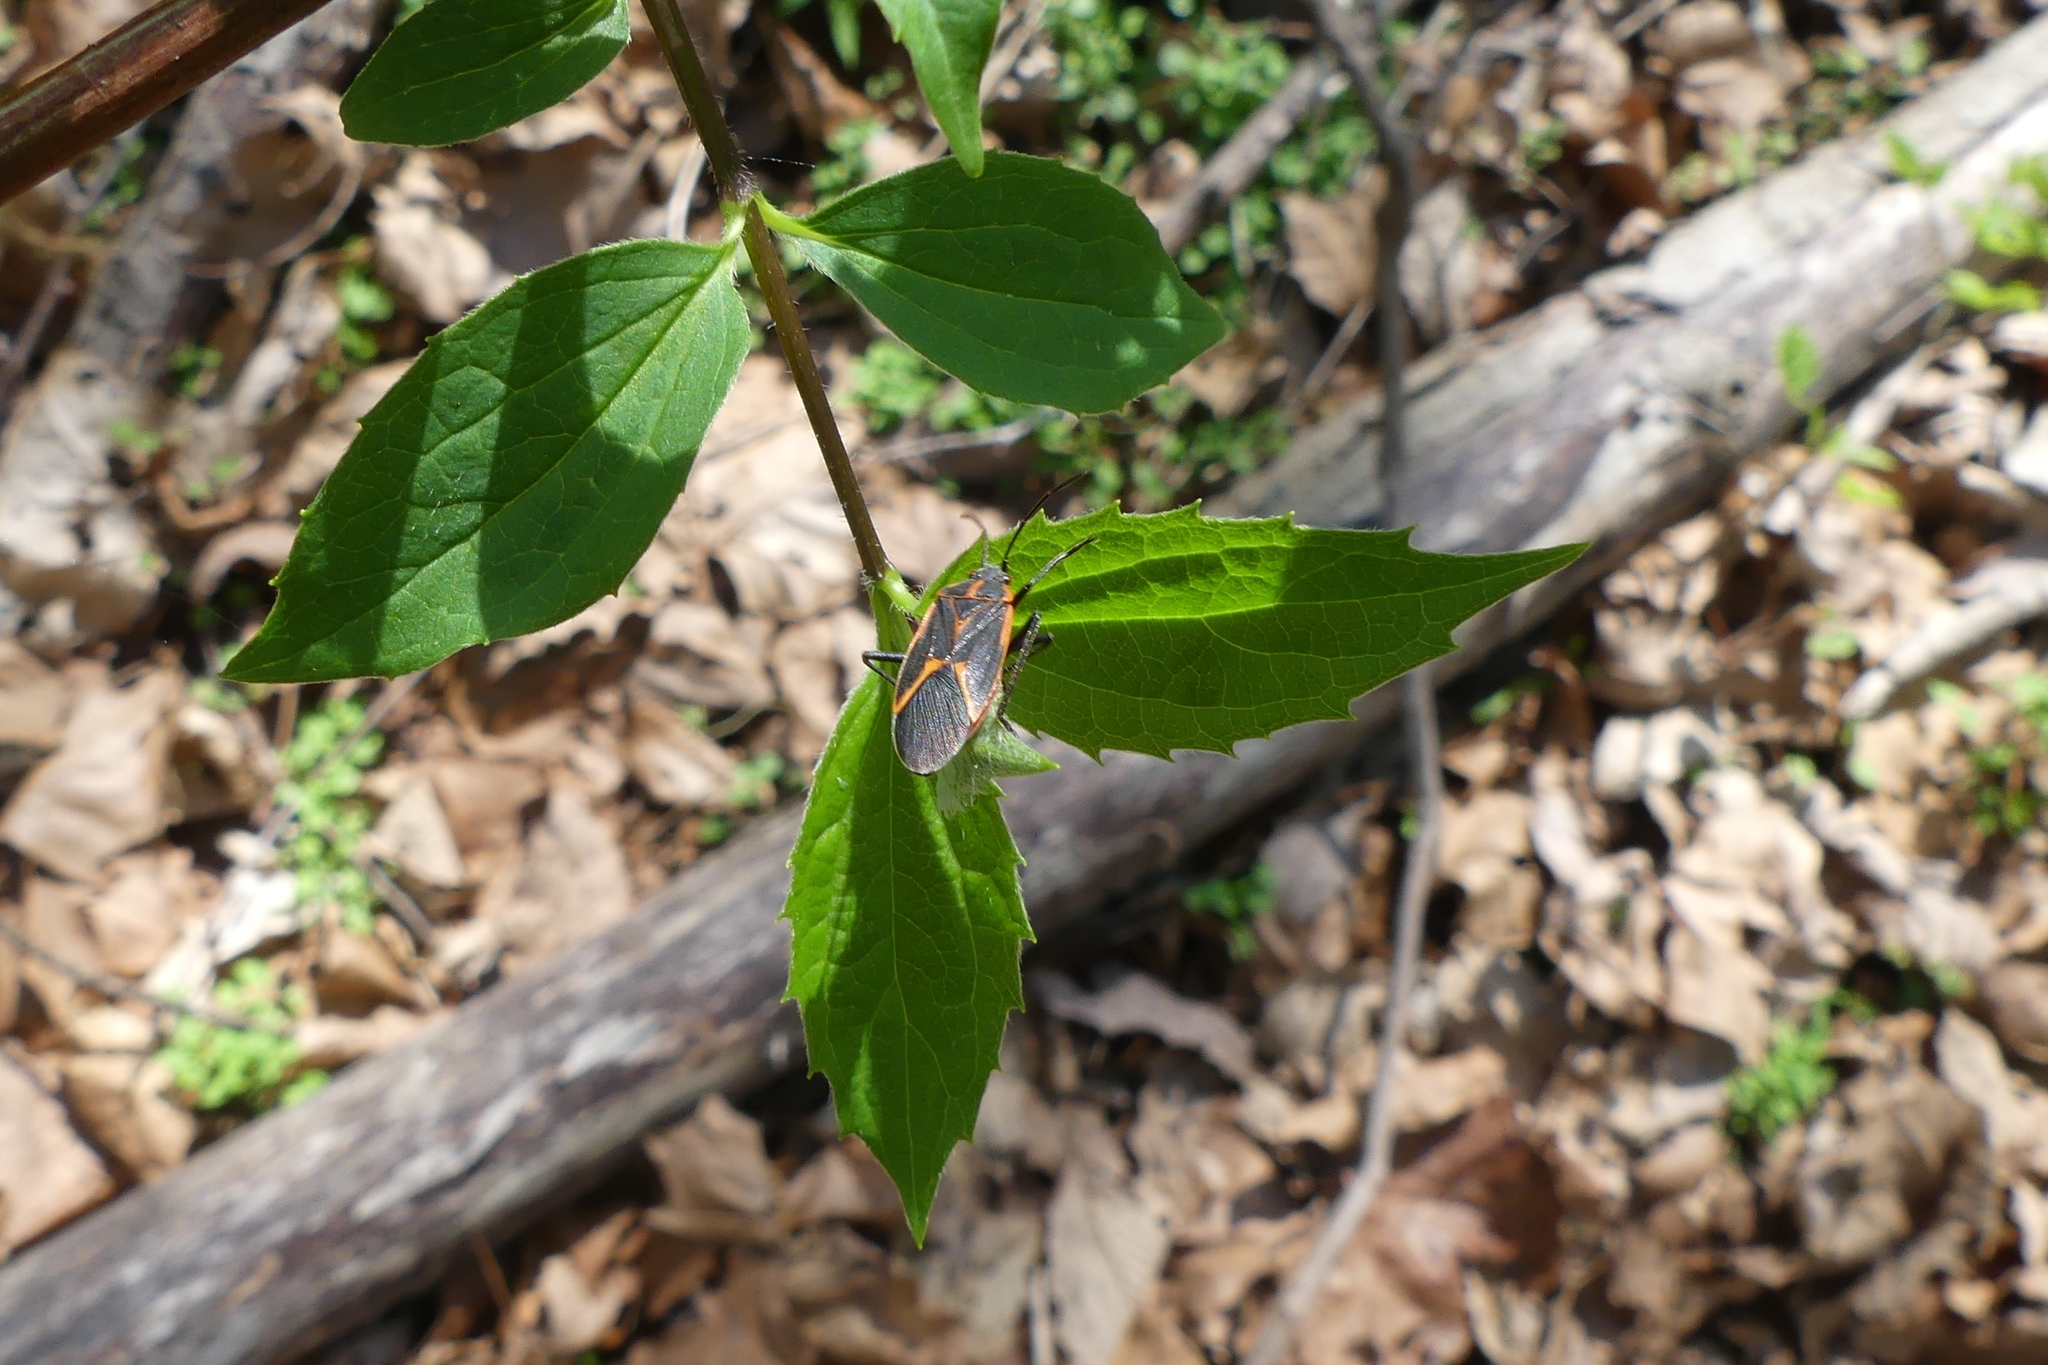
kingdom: Animalia
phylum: Arthropoda
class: Insecta
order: Hemiptera
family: Rhopalidae
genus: Boisea
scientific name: Boisea trivittata
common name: Boxelder bug
